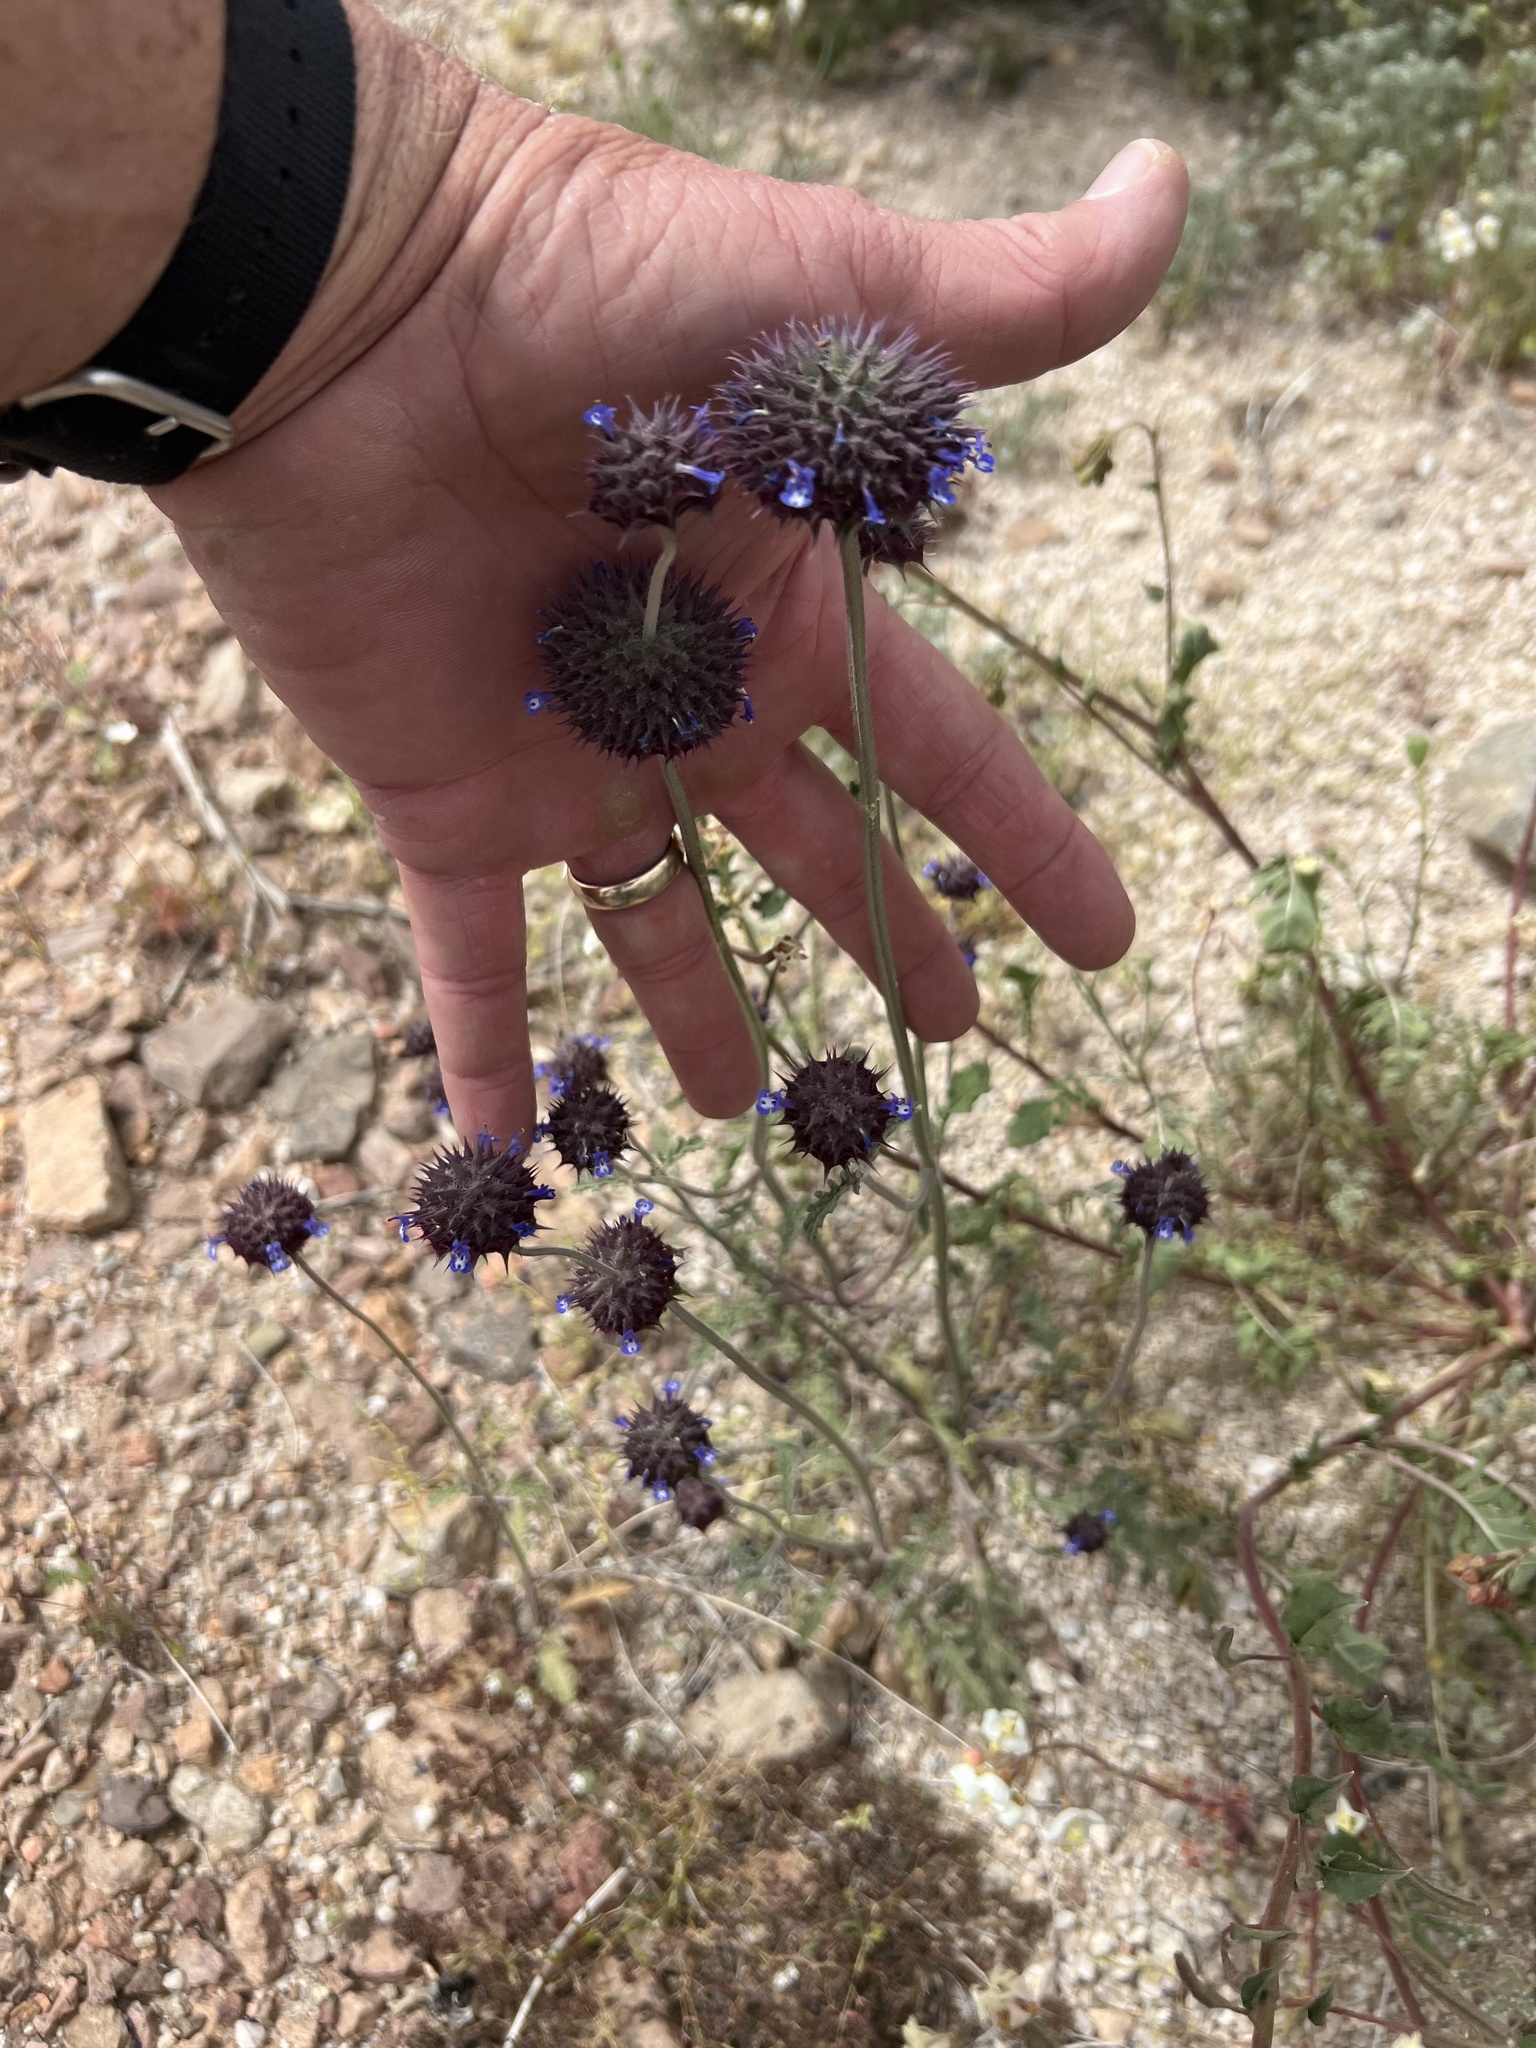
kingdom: Plantae
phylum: Tracheophyta
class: Magnoliopsida
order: Lamiales
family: Lamiaceae
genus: Salvia
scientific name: Salvia columbariae
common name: Chia
